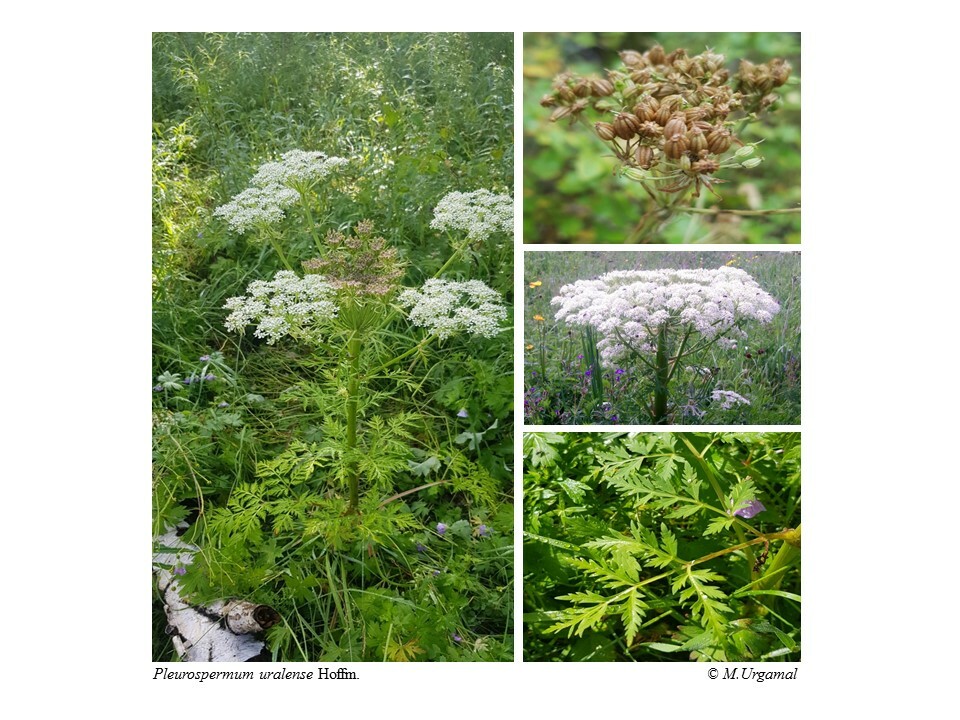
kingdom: Plantae
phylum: Tracheophyta
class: Magnoliopsida
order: Apiales
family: Apiaceae
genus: Pleurospermum
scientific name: Pleurospermum uralense
